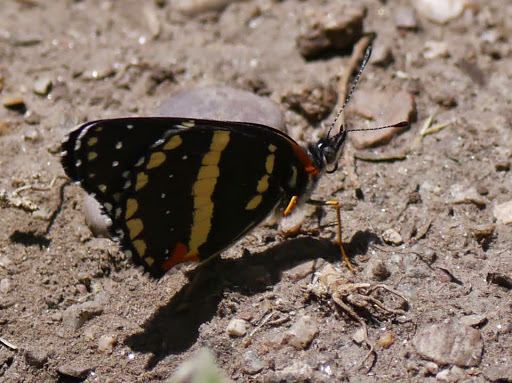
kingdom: Animalia
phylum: Arthropoda
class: Insecta
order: Lepidoptera
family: Nymphalidae
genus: Chlosyne
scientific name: Chlosyne lacinia
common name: Bordered patch
